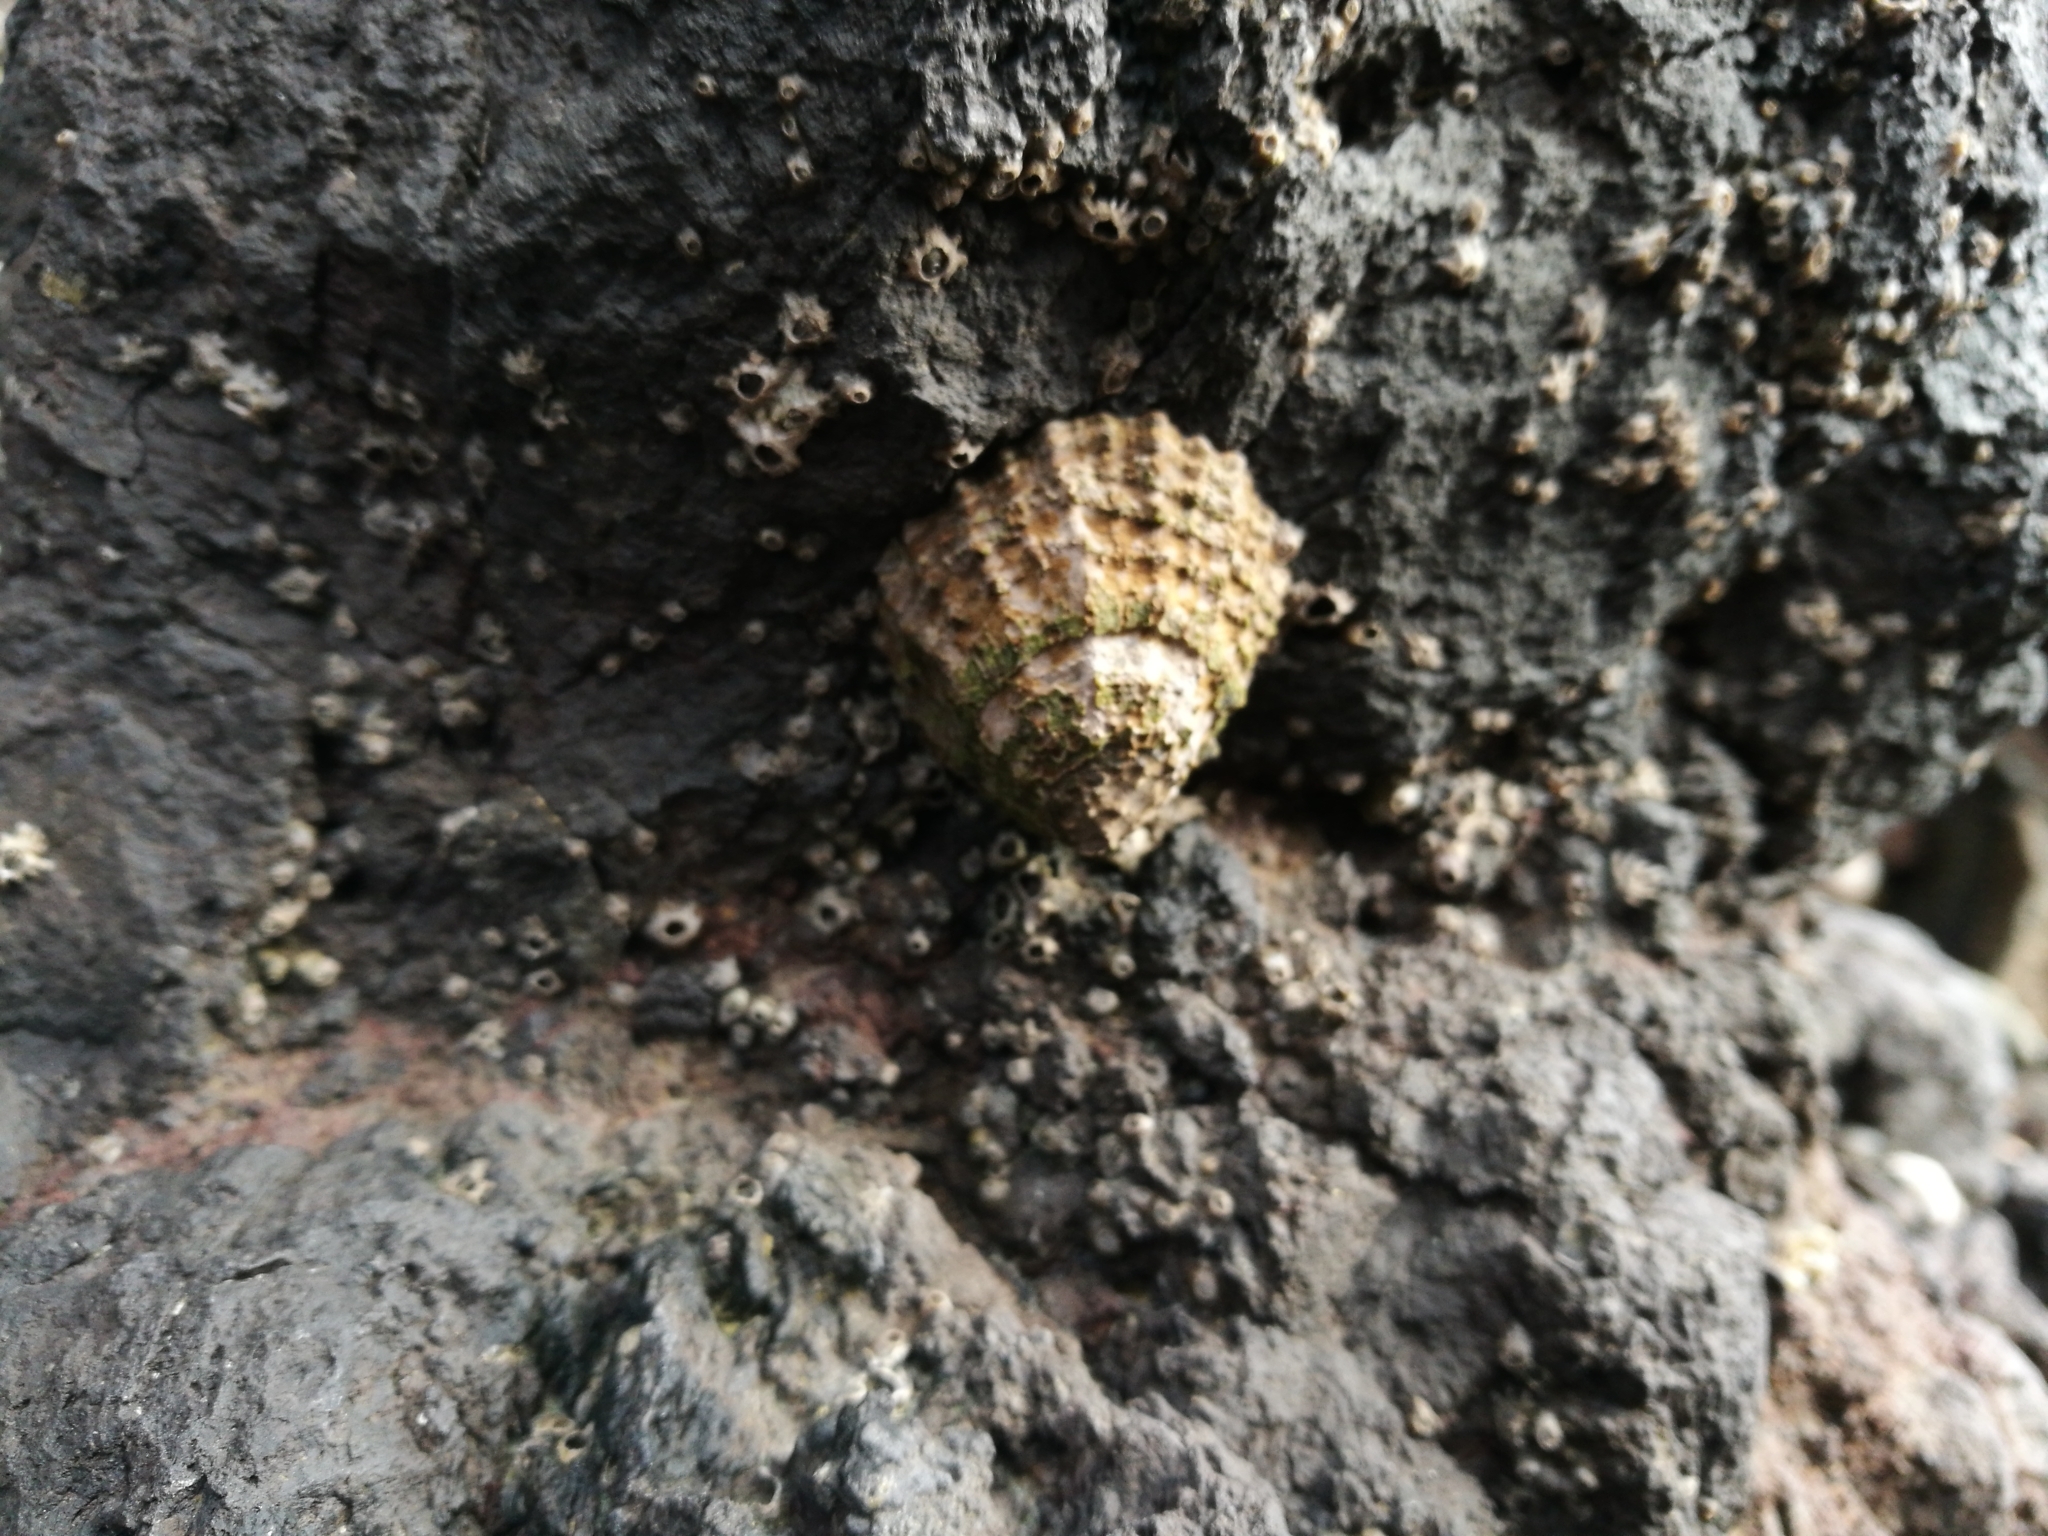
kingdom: Animalia
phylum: Mollusca
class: Gastropoda
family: Nacellidae
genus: Cellana
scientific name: Cellana ornata
